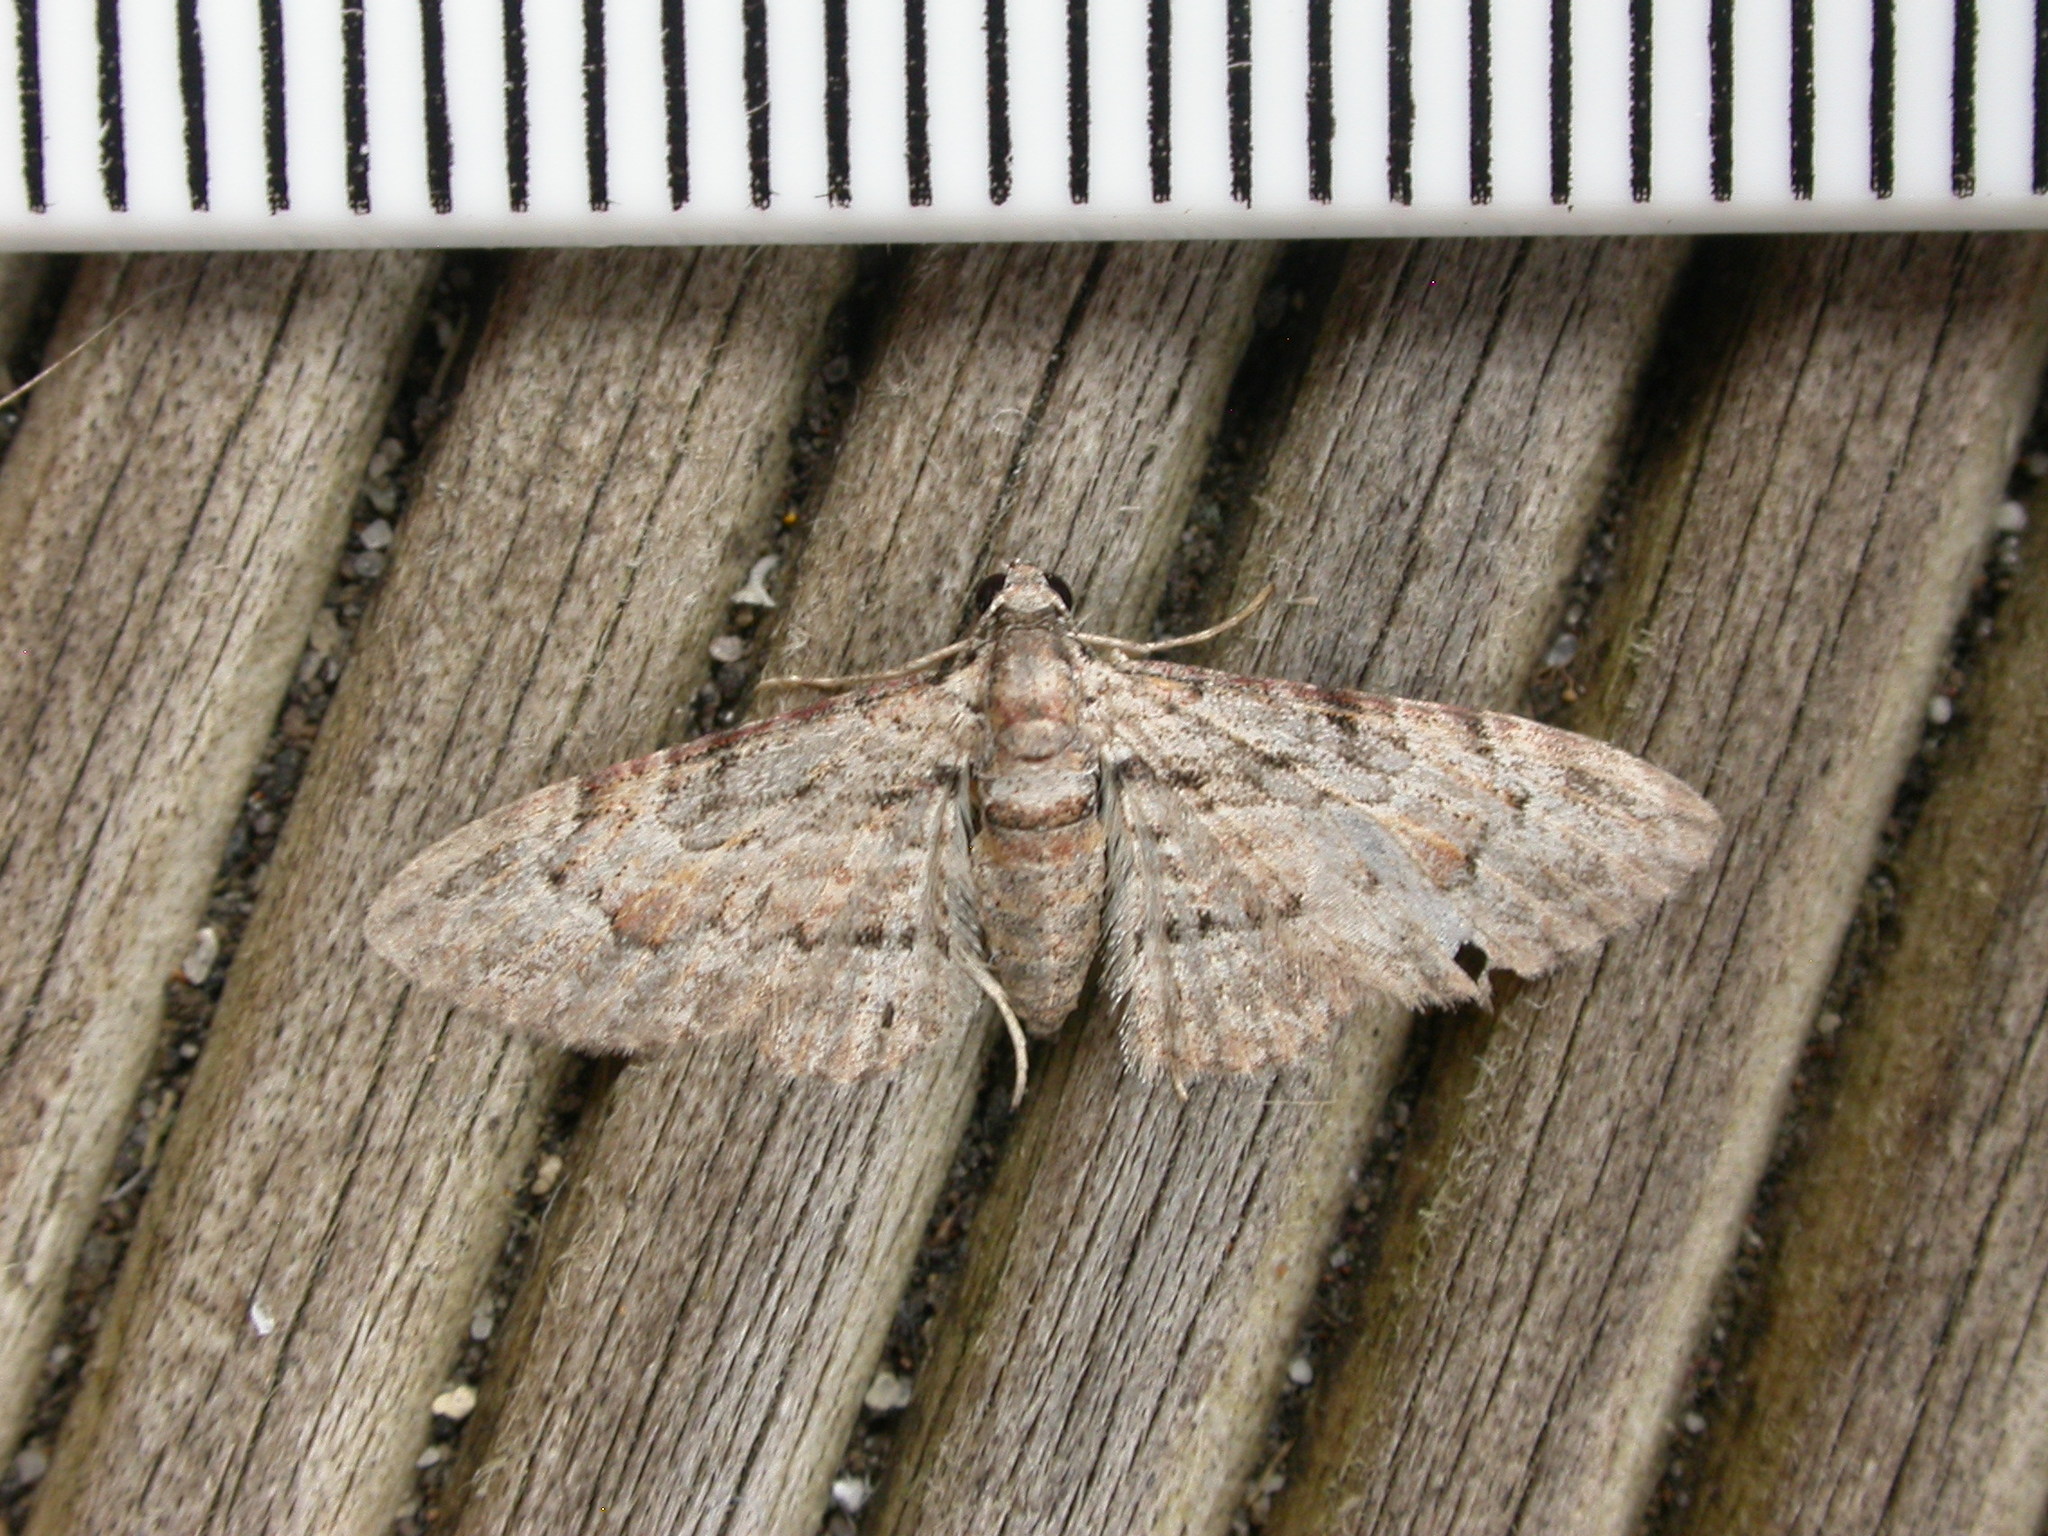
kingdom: Animalia
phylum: Arthropoda
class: Insecta
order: Lepidoptera
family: Geometridae
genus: Chloroclystis
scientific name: Chloroclystis insigillata
